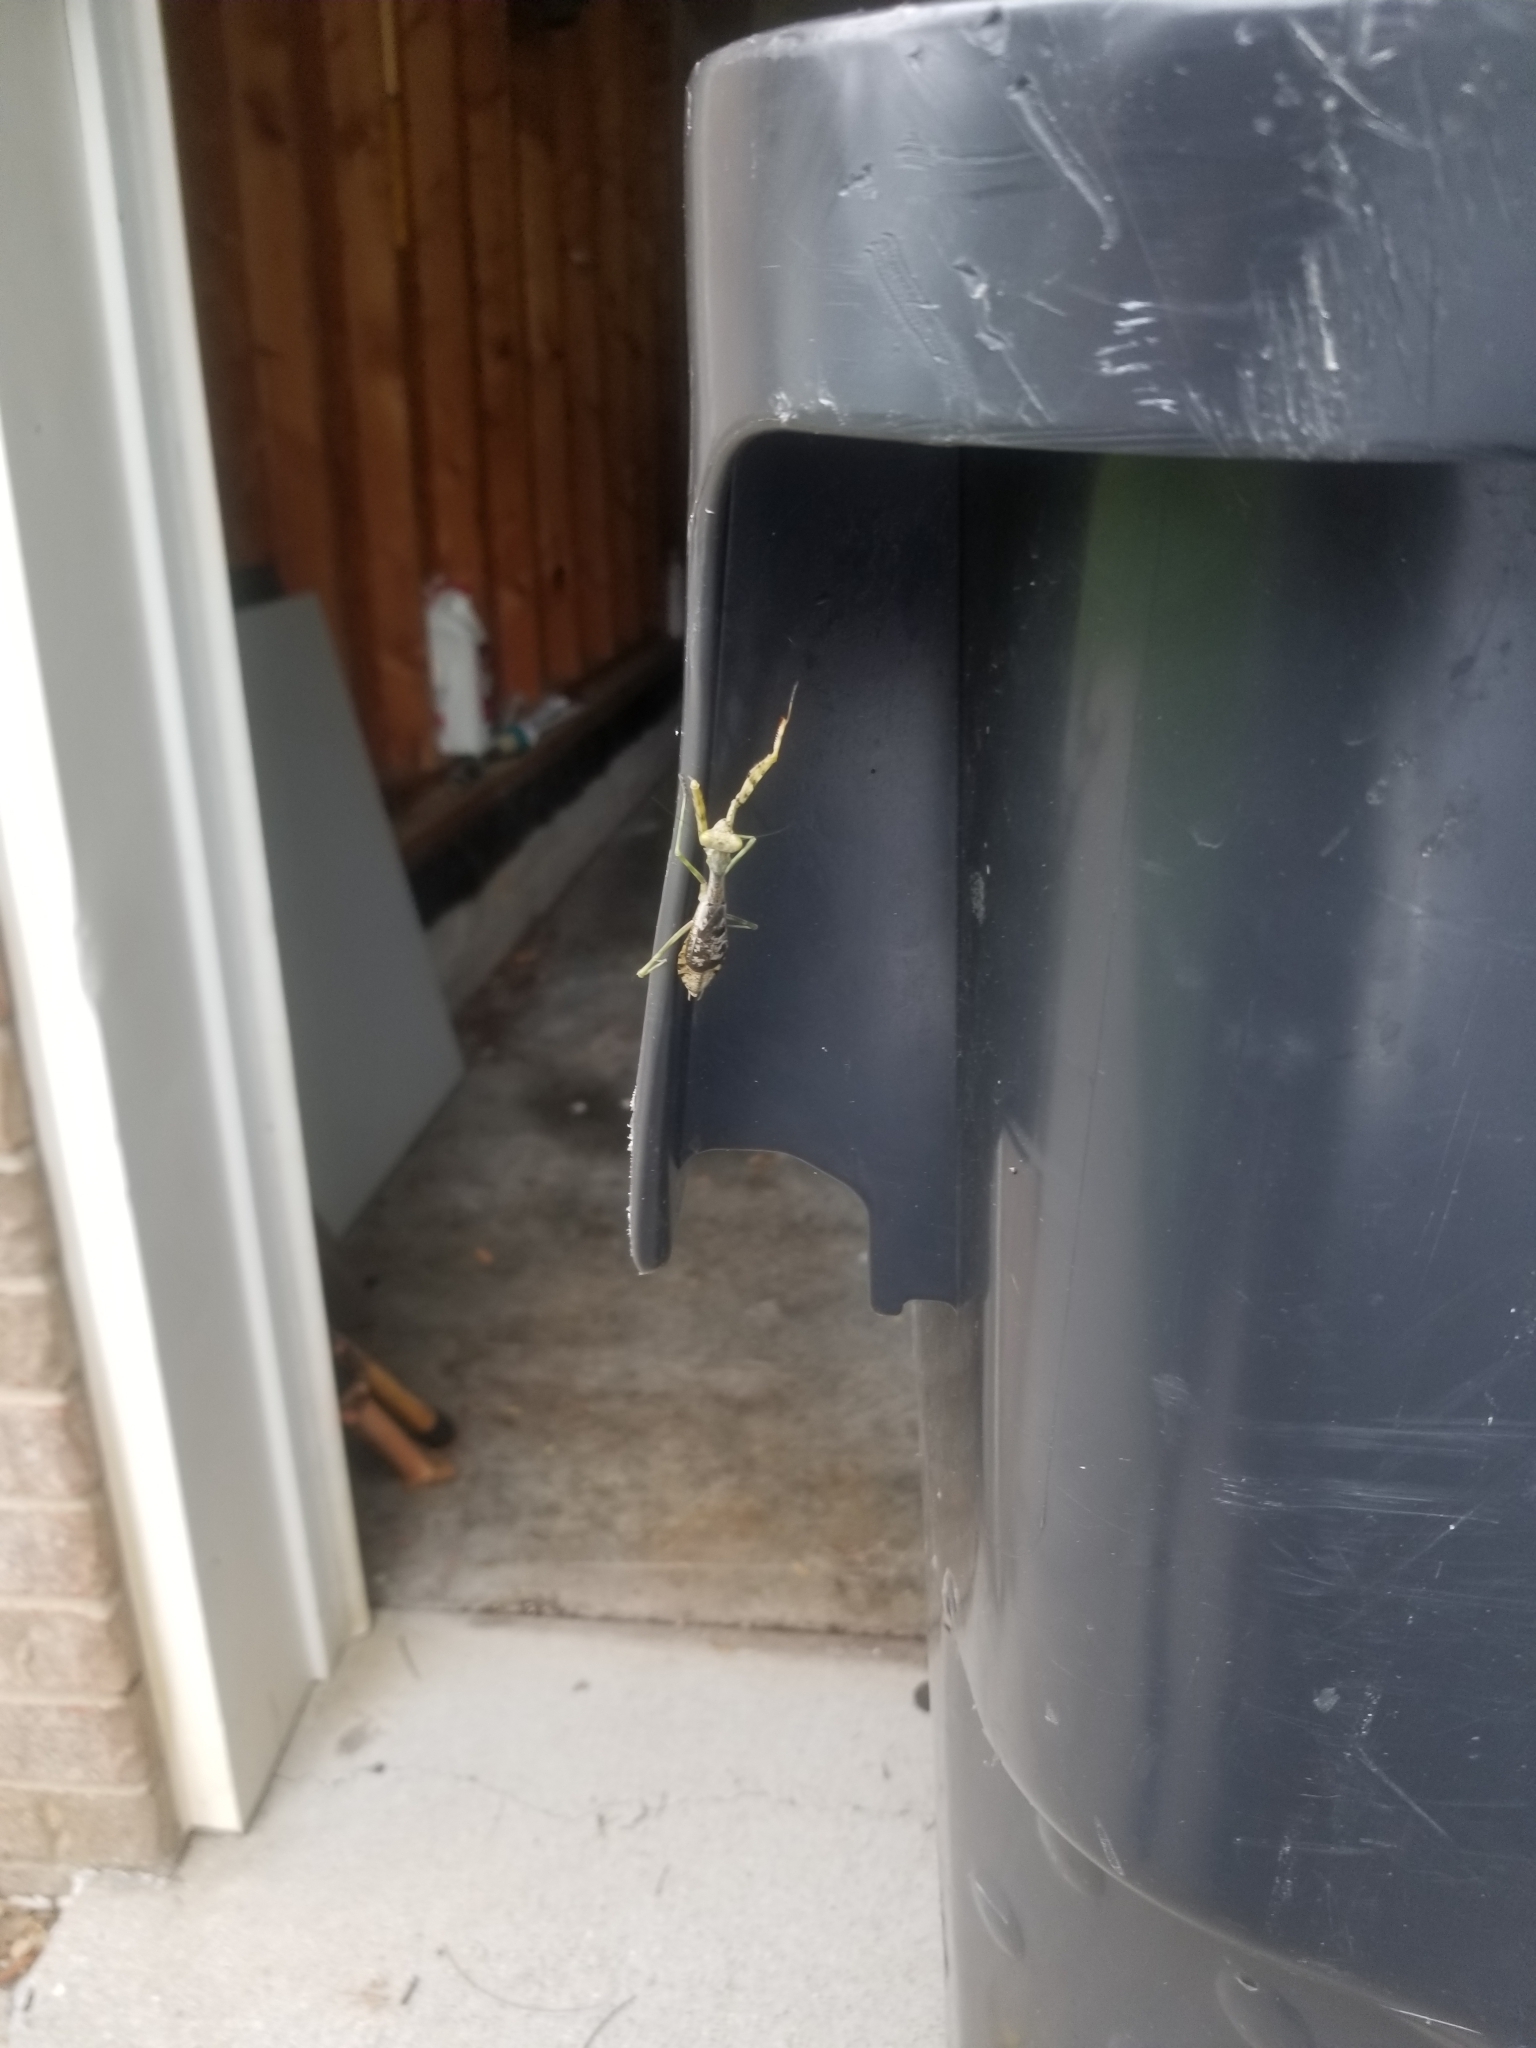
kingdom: Animalia
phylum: Arthropoda
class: Insecta
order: Mantodea
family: Mantidae
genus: Stagmomantis
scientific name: Stagmomantis carolina
